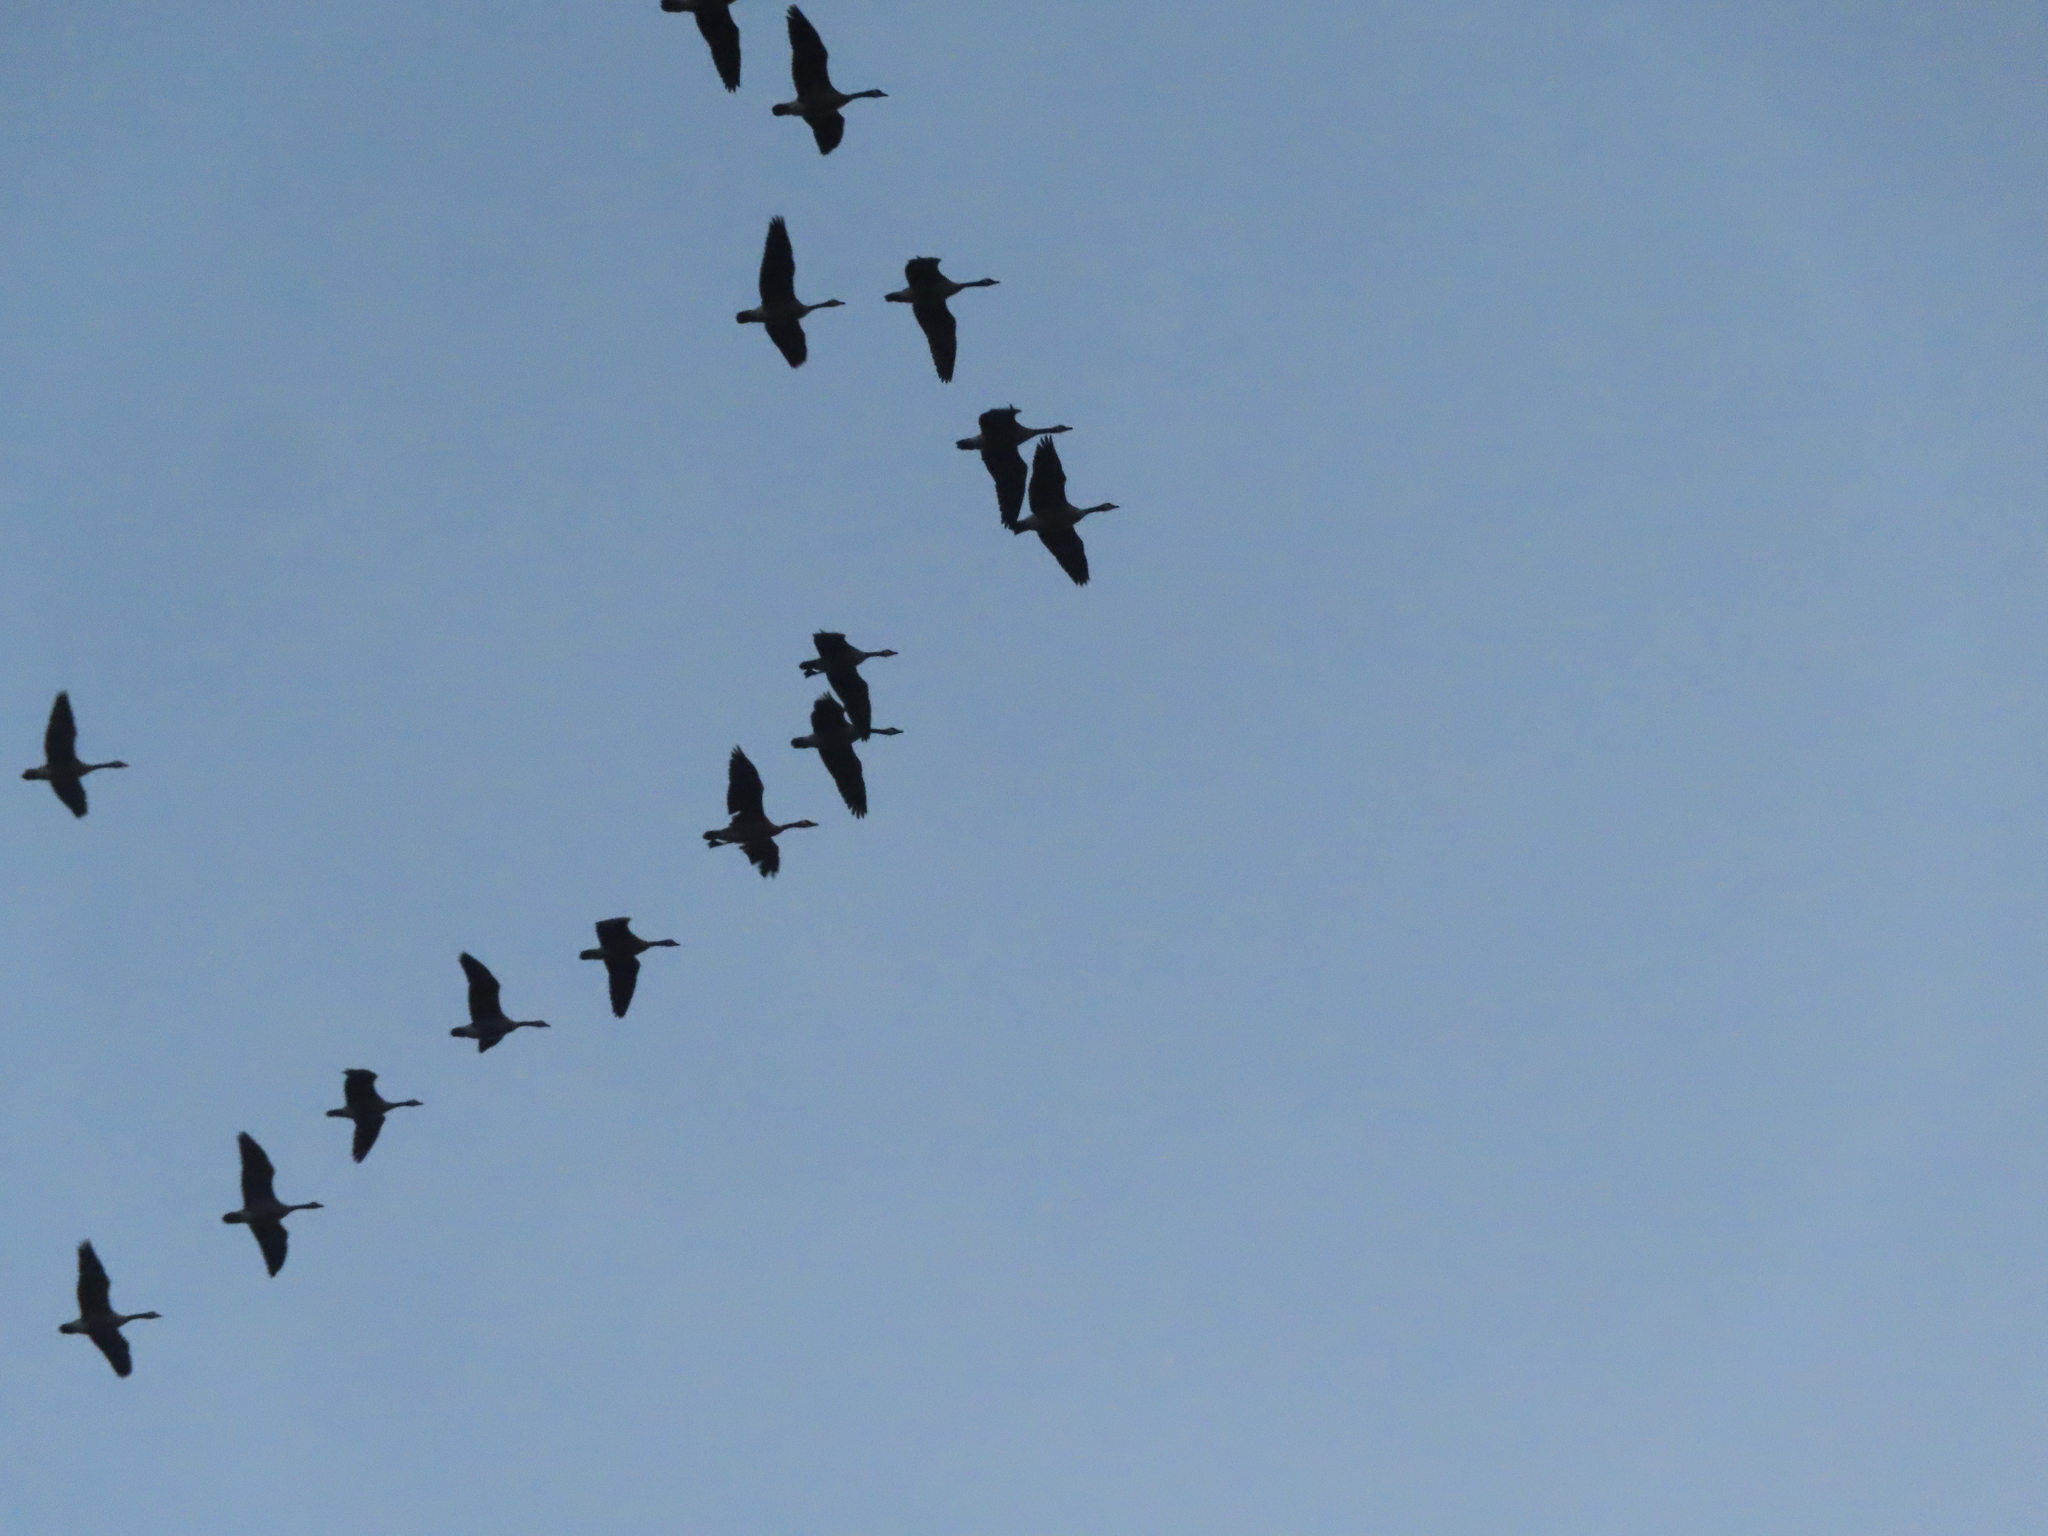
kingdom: Animalia
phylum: Chordata
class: Aves
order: Anseriformes
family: Anatidae
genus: Branta
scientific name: Branta canadensis
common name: Canada goose
